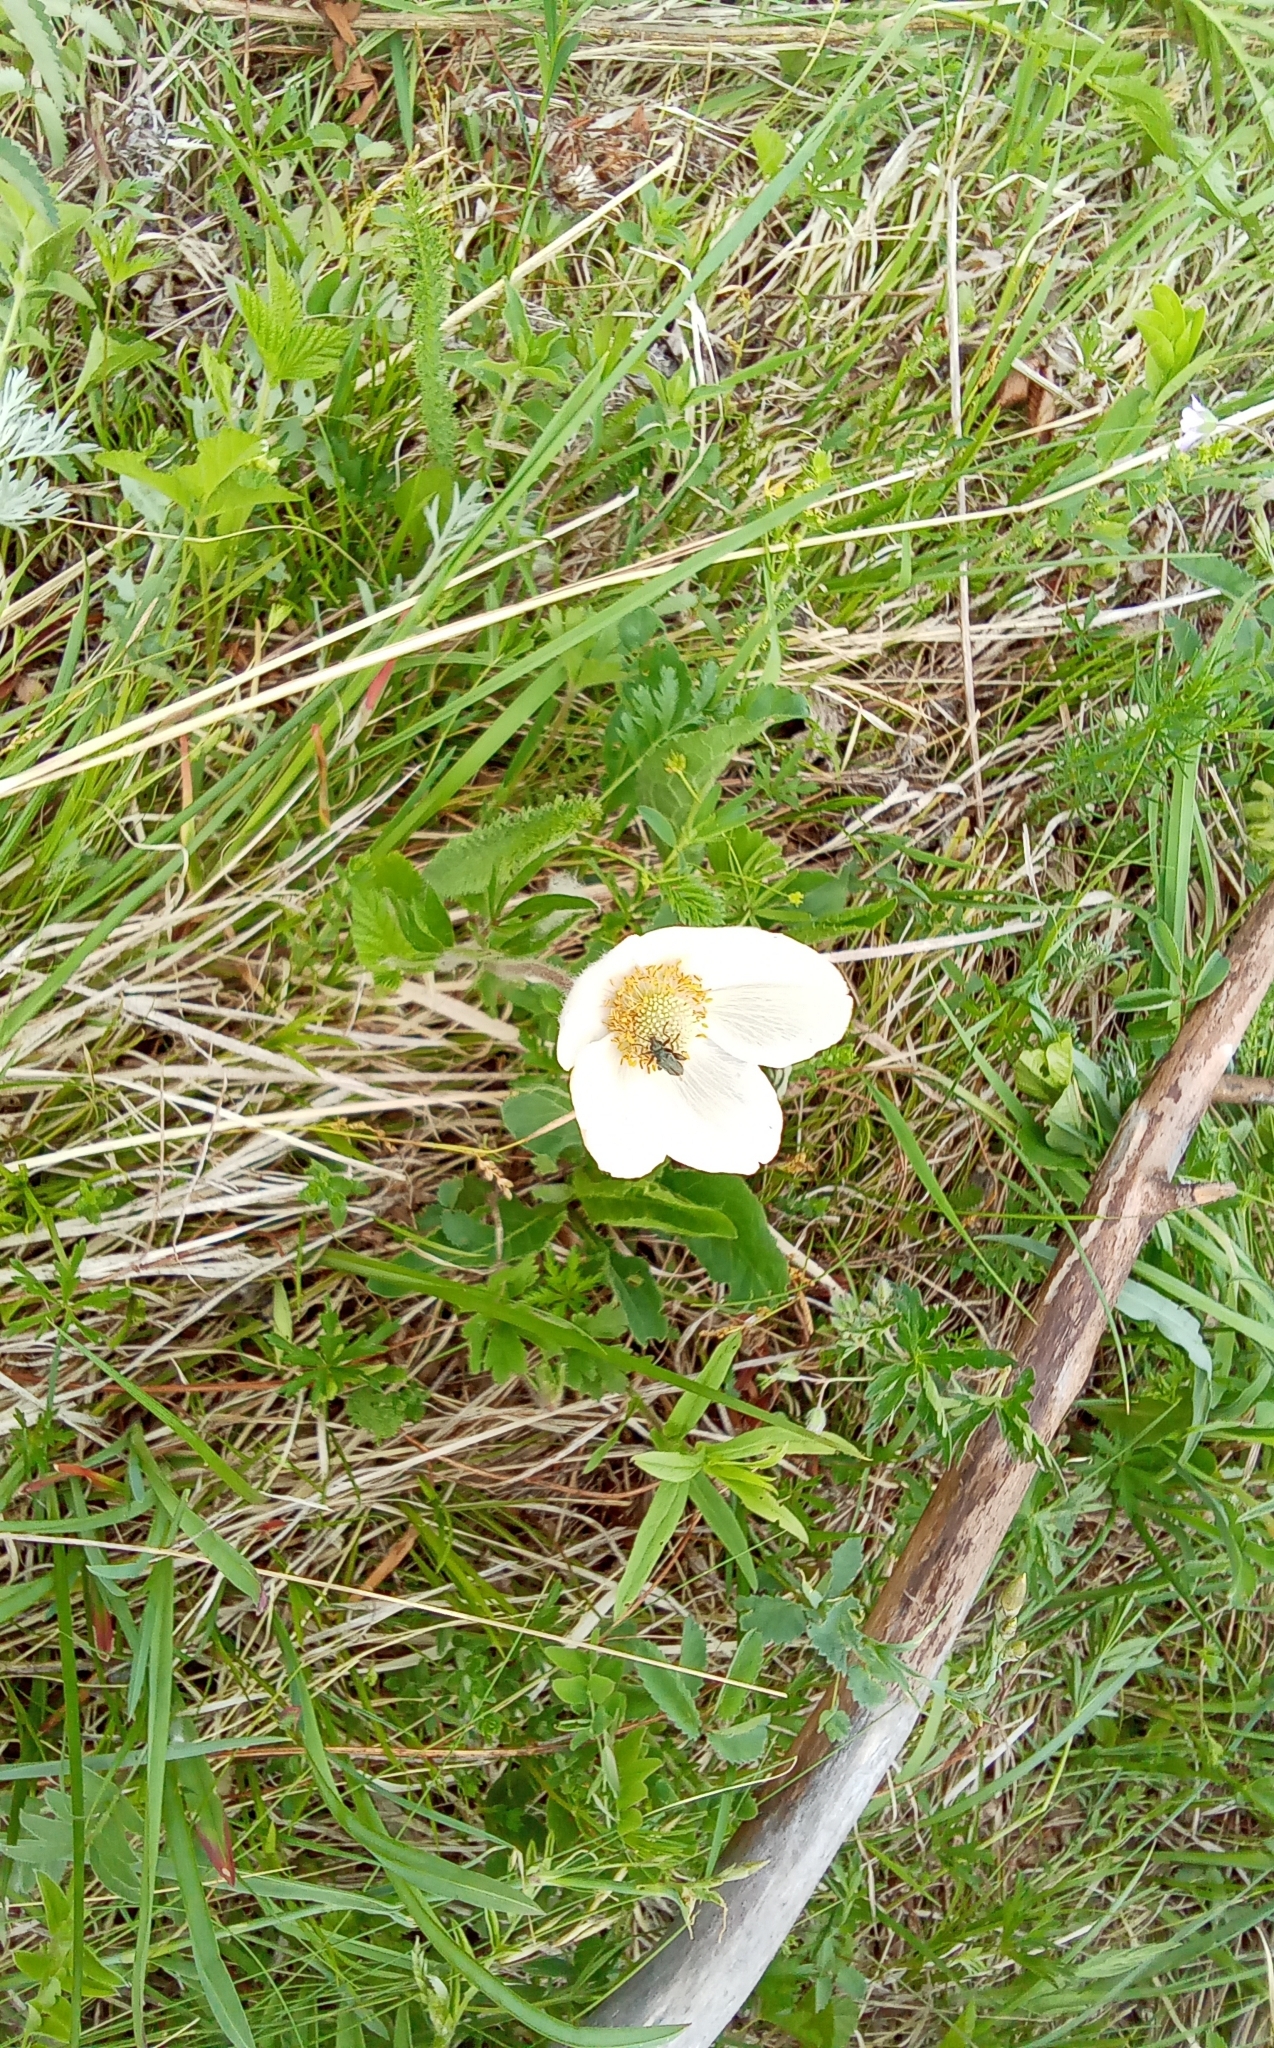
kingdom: Plantae
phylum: Tracheophyta
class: Magnoliopsida
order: Ranunculales
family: Ranunculaceae
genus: Anemone
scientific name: Anemone sylvestris
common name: Snowdrop anemone
